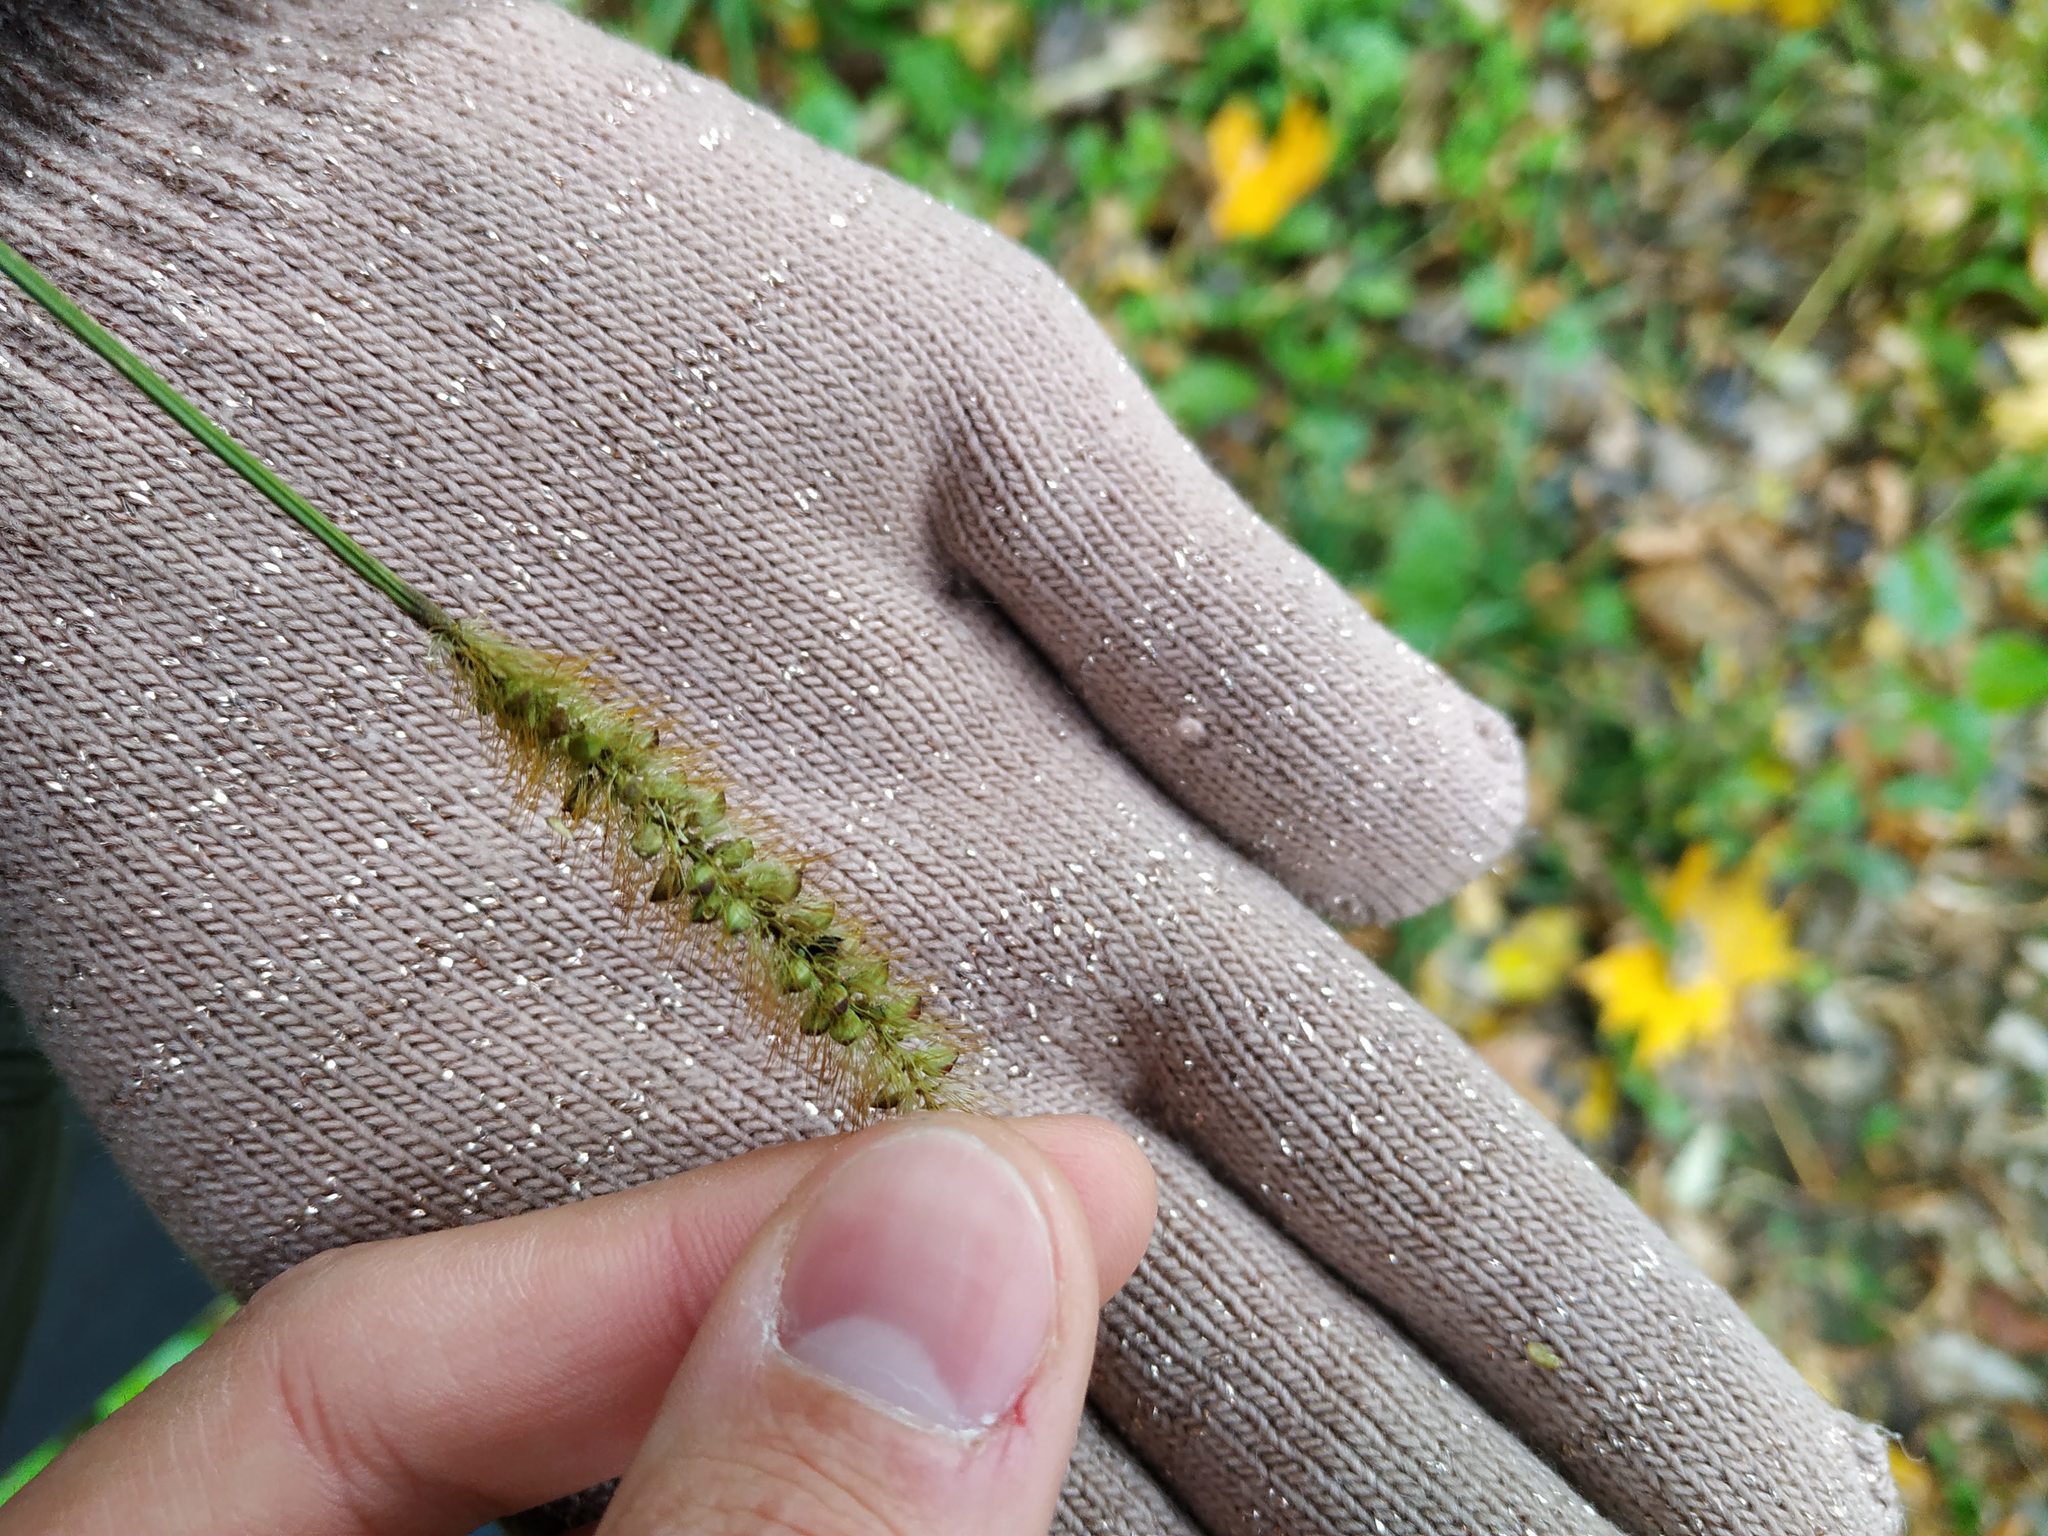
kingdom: Plantae
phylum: Tracheophyta
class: Liliopsida
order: Poales
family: Poaceae
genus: Setaria
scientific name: Setaria pumila
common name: Yellow bristle-grass
